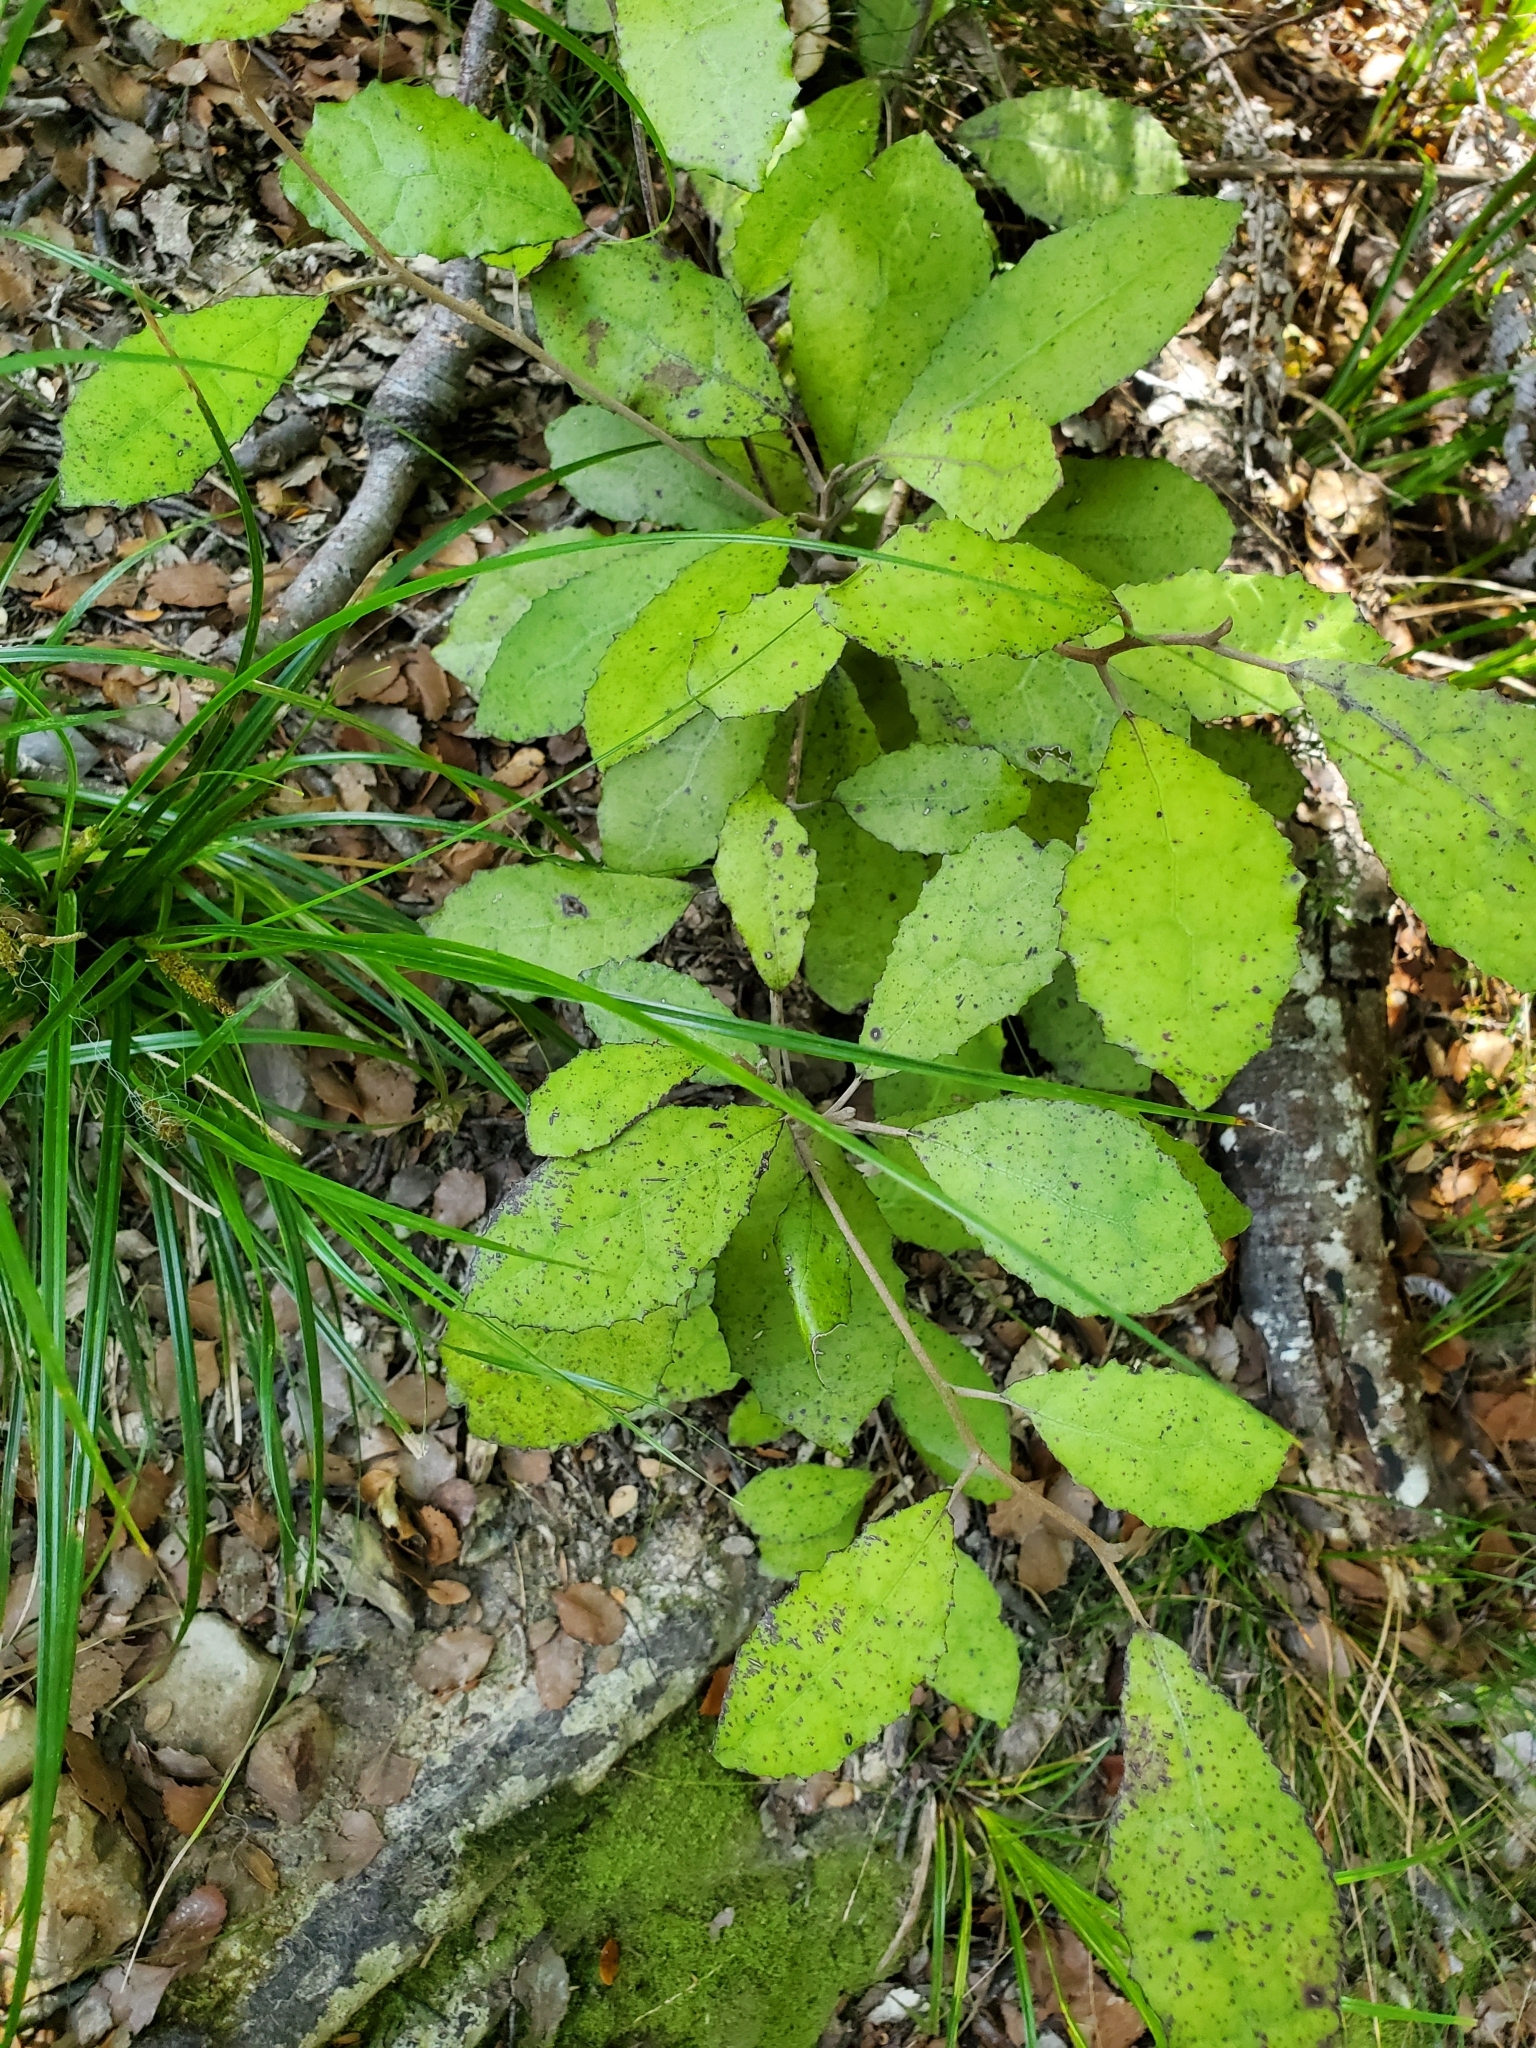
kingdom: Plantae
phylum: Tracheophyta
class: Magnoliopsida
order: Asterales
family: Asteraceae
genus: Olearia
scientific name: Olearia rani
